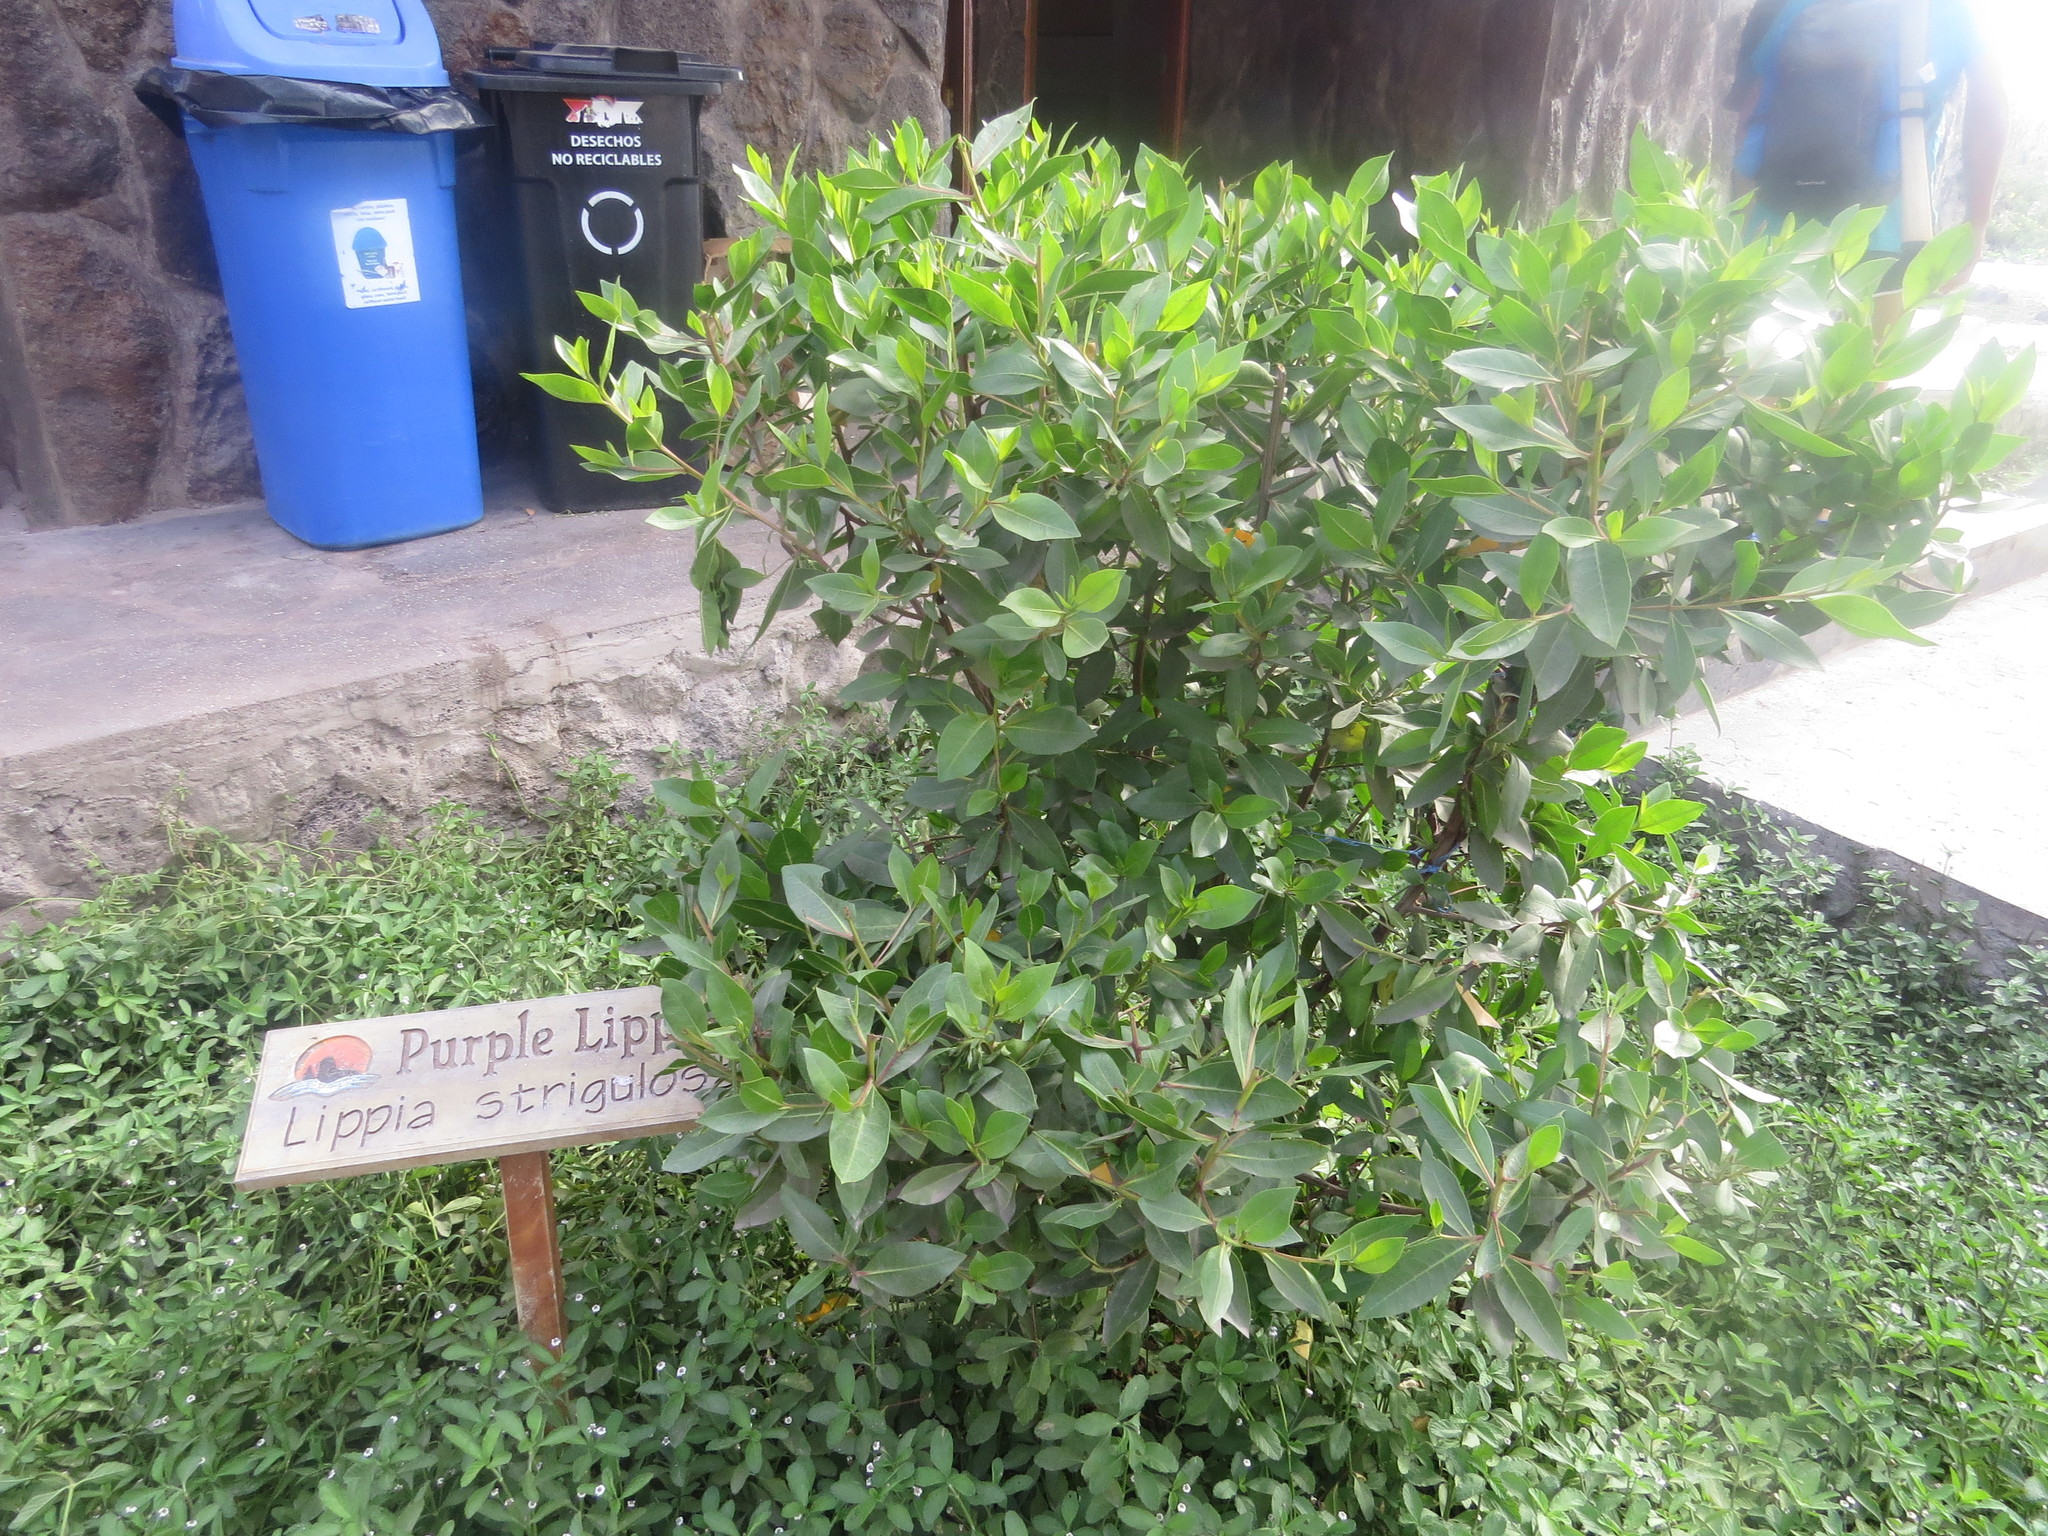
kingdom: Plantae
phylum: Tracheophyta
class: Magnoliopsida
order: Lamiales
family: Verbenaceae
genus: Phyla
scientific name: Phyla nodiflora
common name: Frogfruit
